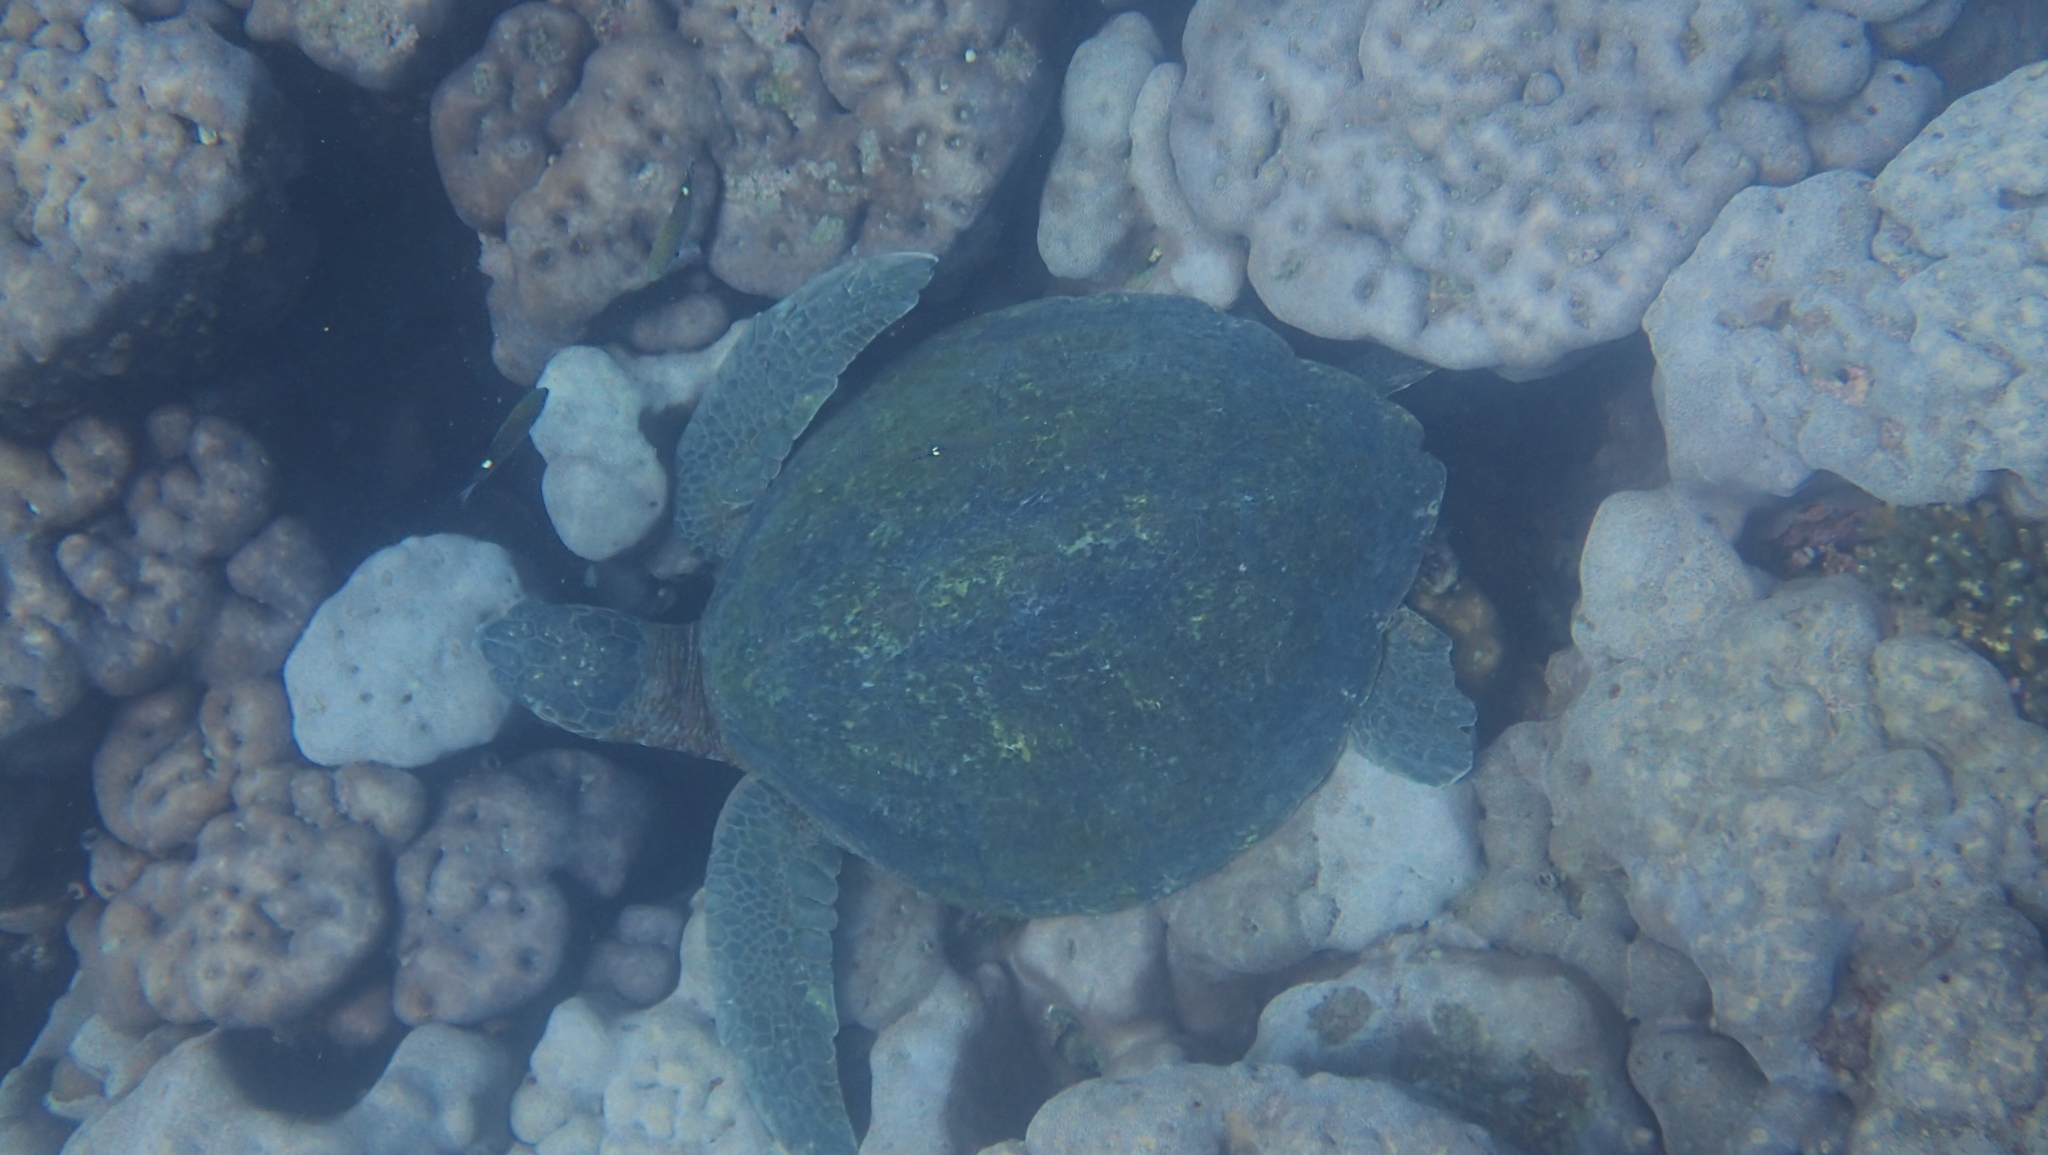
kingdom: Animalia
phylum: Chordata
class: Testudines
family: Cheloniidae
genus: Chelonia
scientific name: Chelonia mydas
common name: Green turtle
